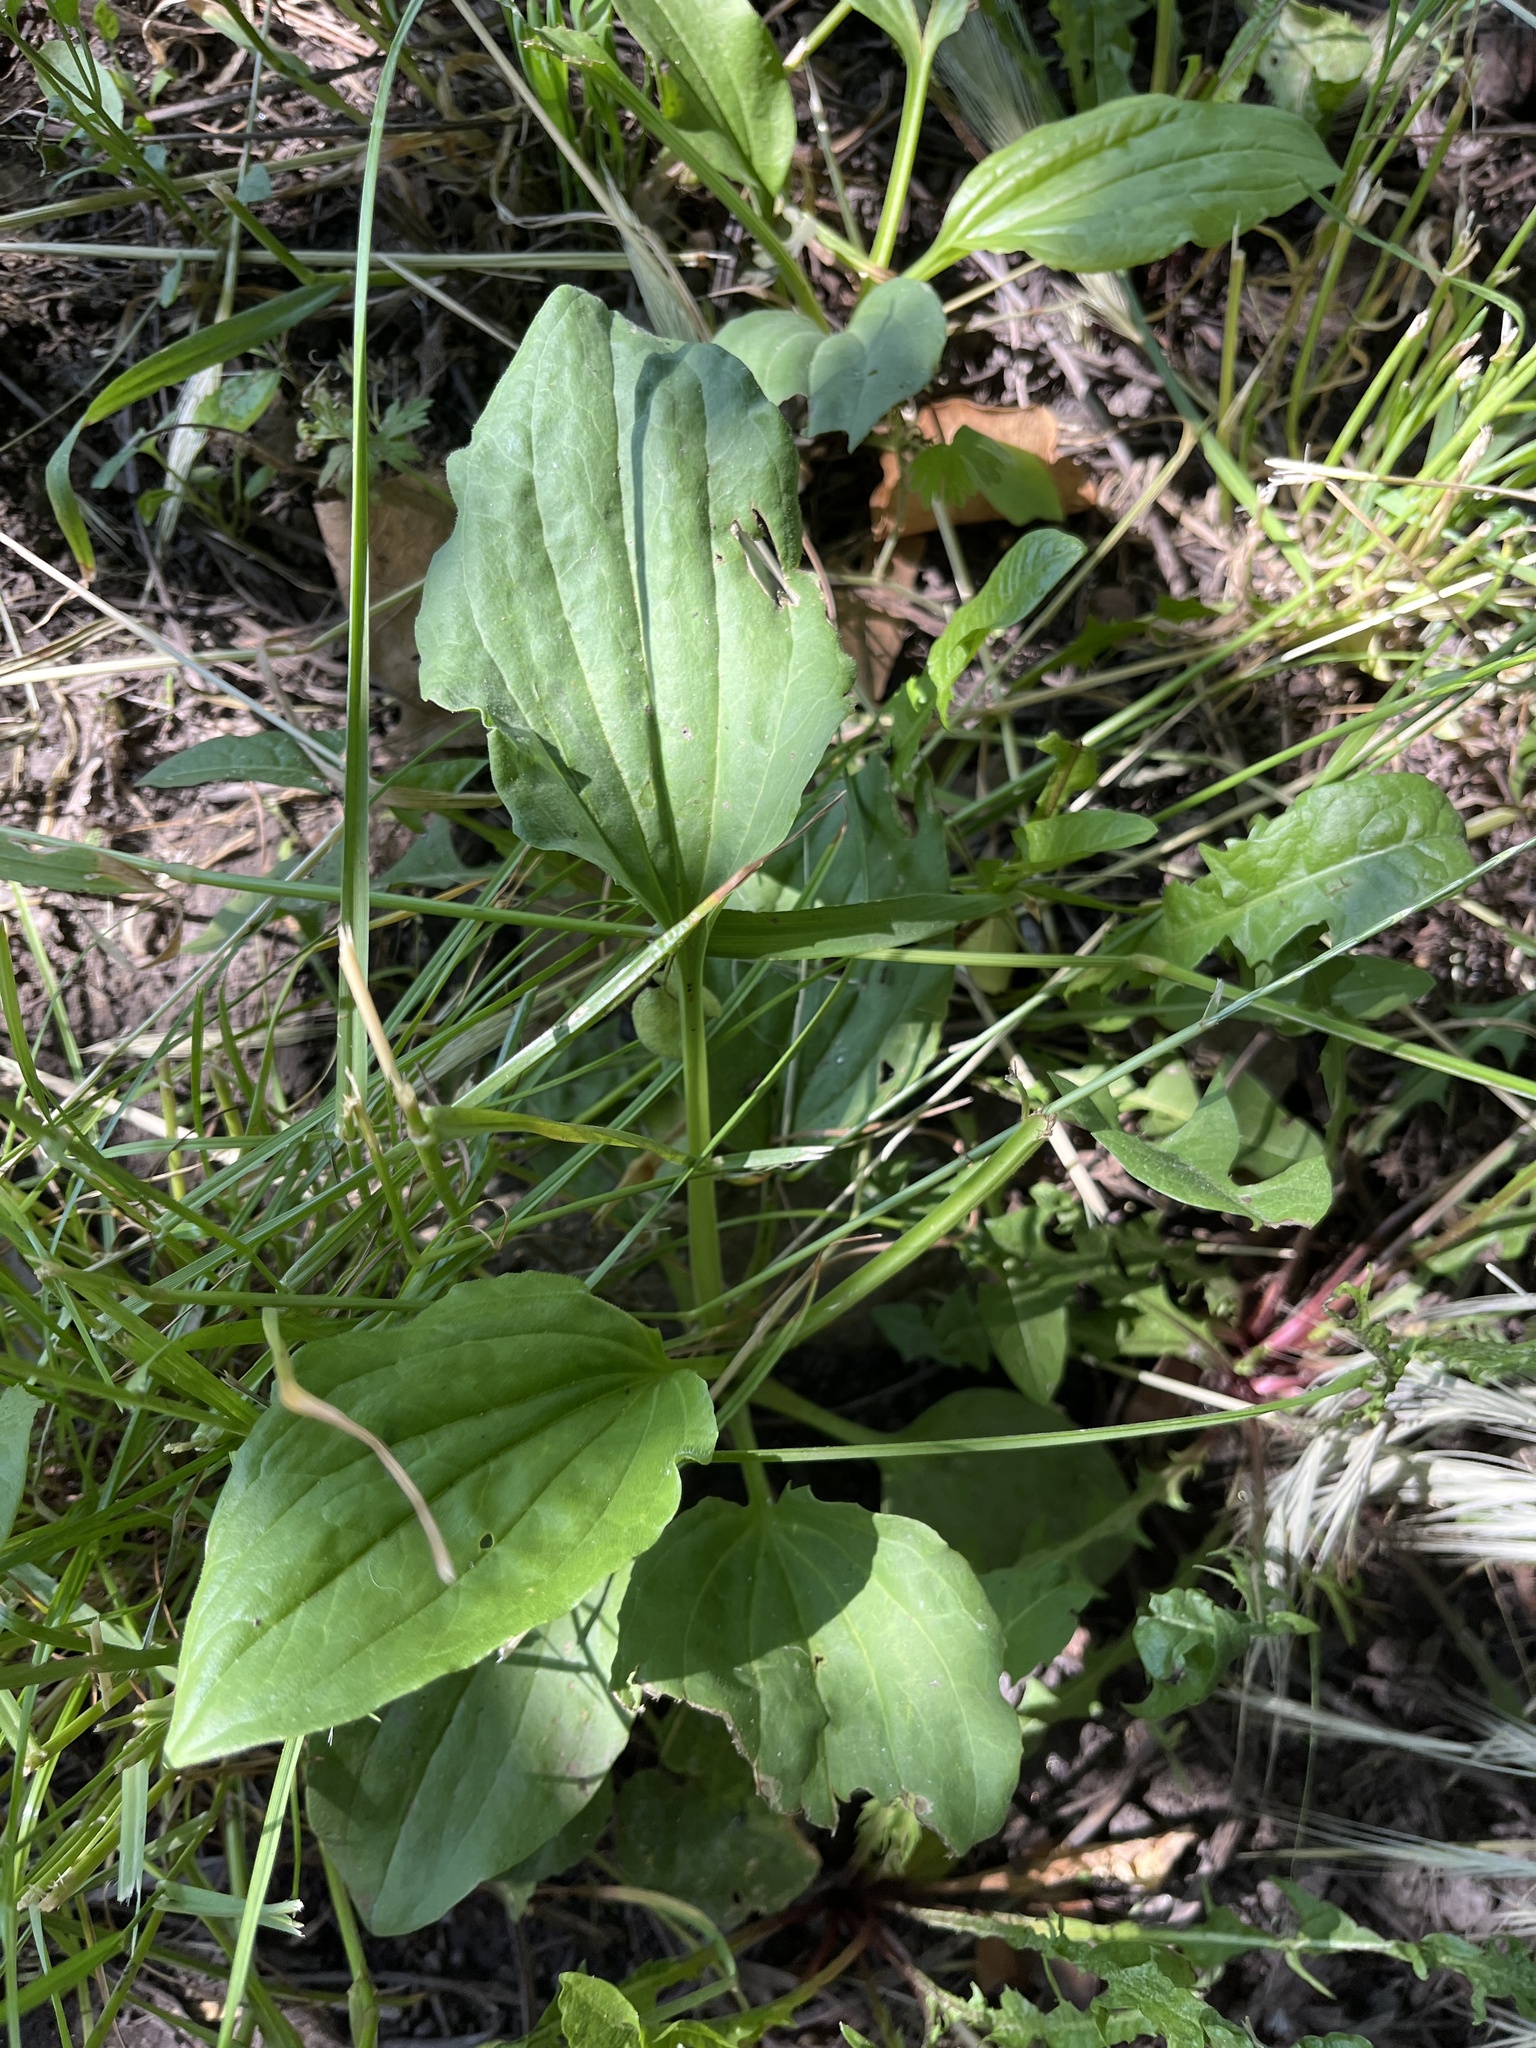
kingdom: Plantae
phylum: Tracheophyta
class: Magnoliopsida
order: Lamiales
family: Plantaginaceae
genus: Plantago
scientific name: Plantago major
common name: Common plantain
